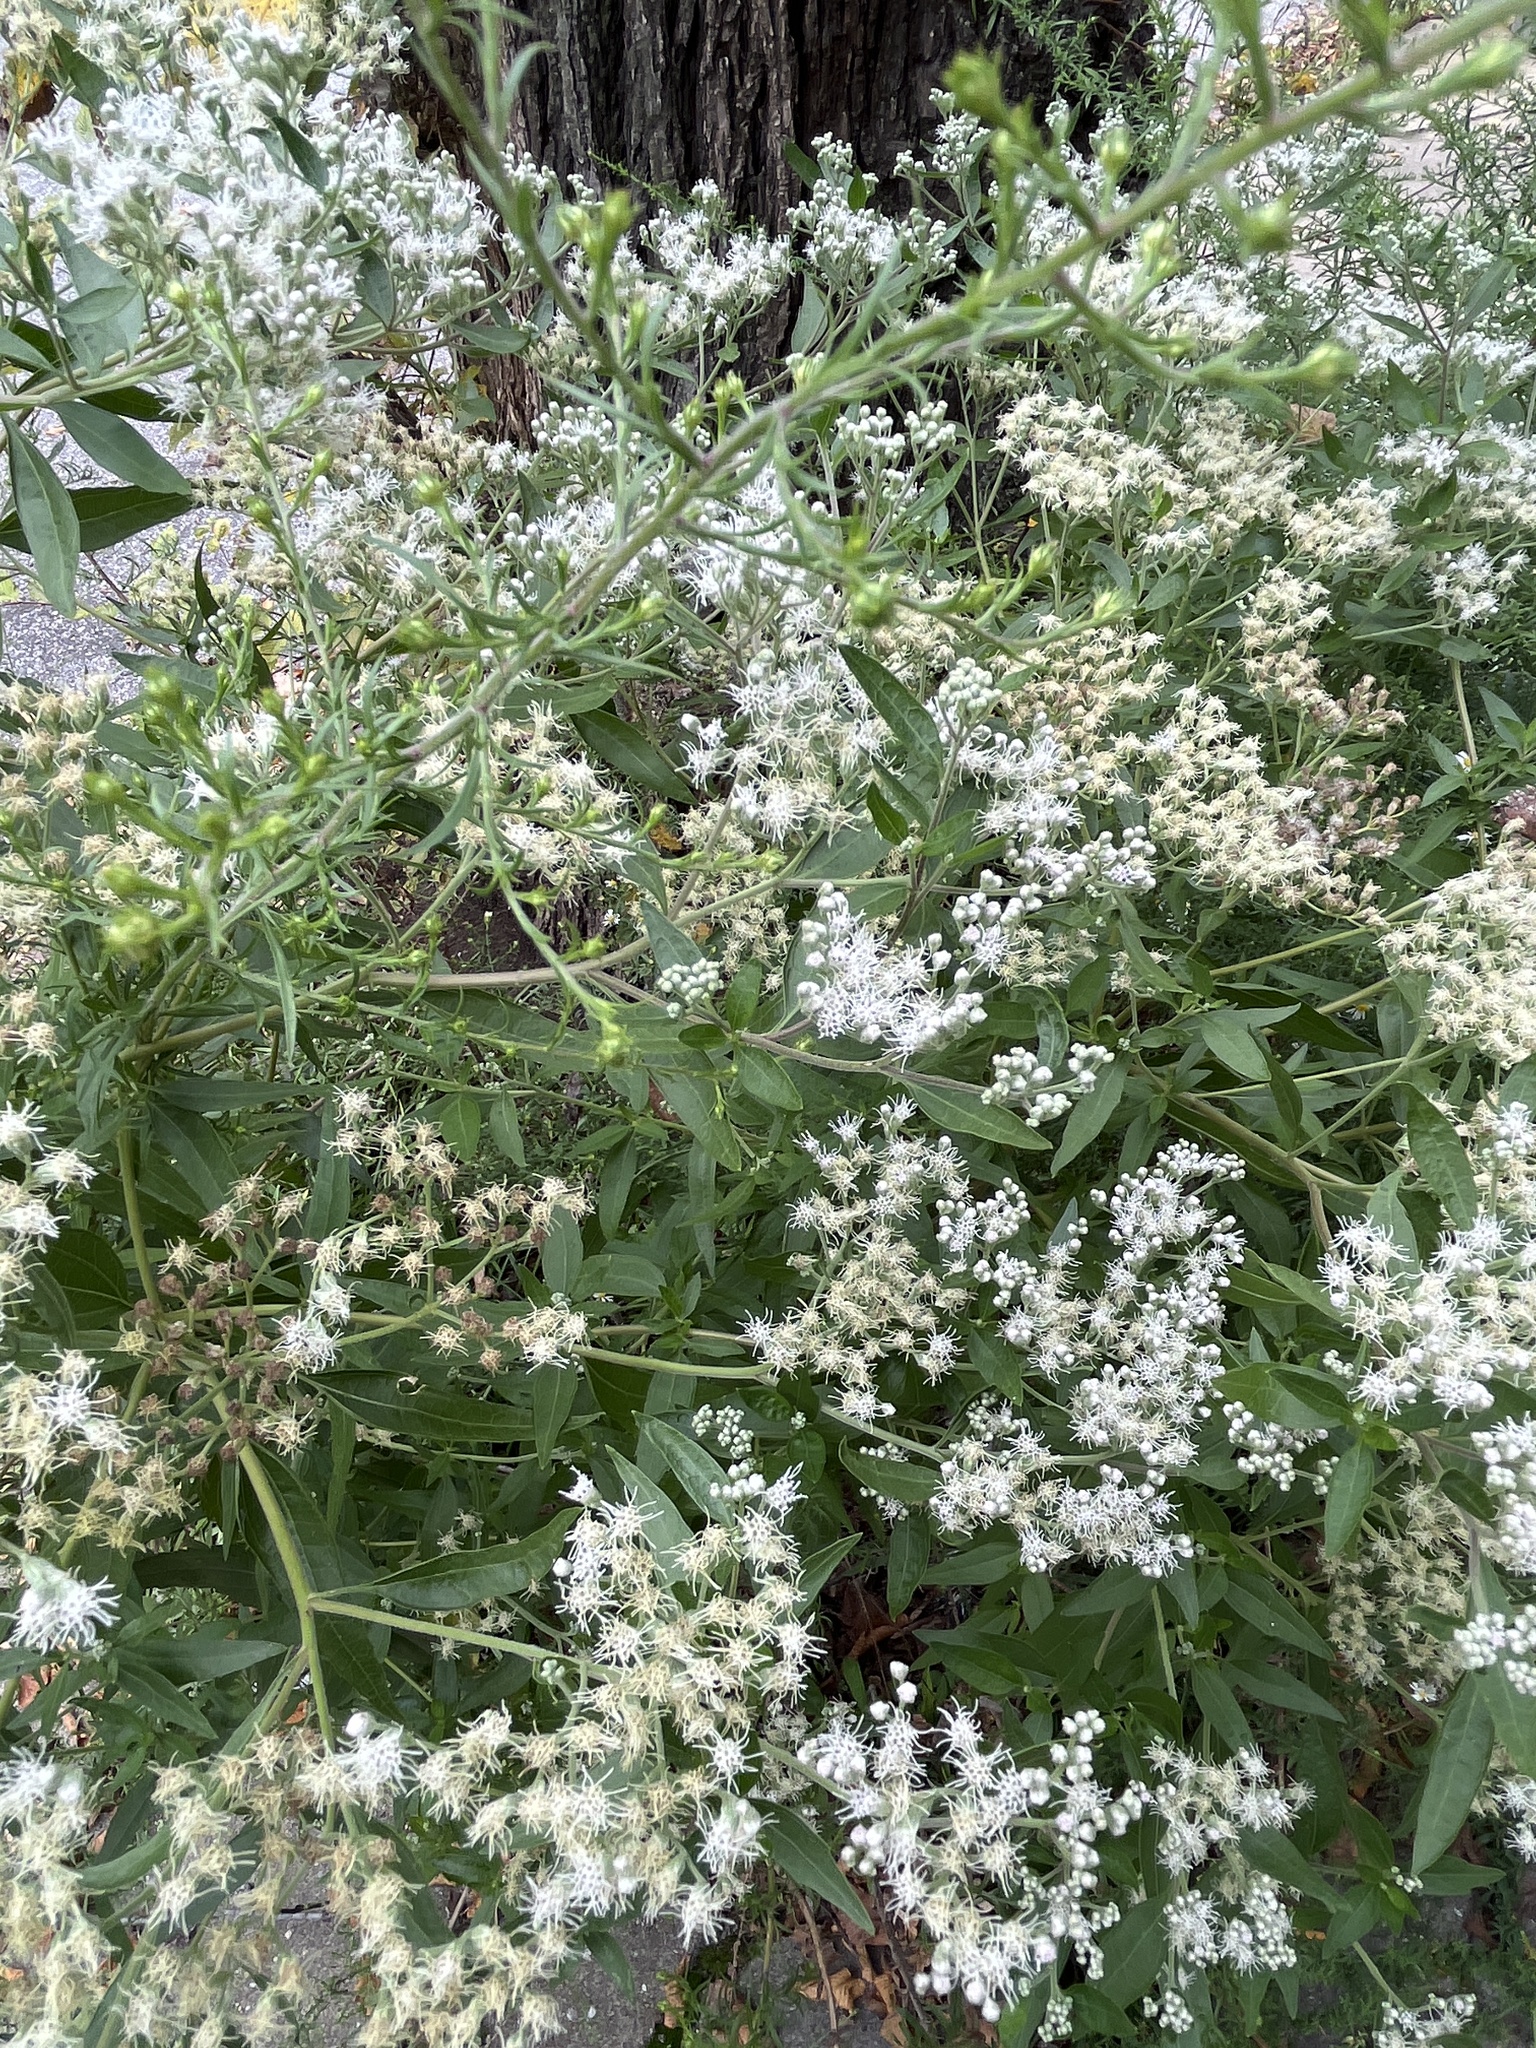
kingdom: Plantae
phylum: Tracheophyta
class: Magnoliopsida
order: Asterales
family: Asteraceae
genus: Eupatorium
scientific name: Eupatorium serotinum
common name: Late boneset
